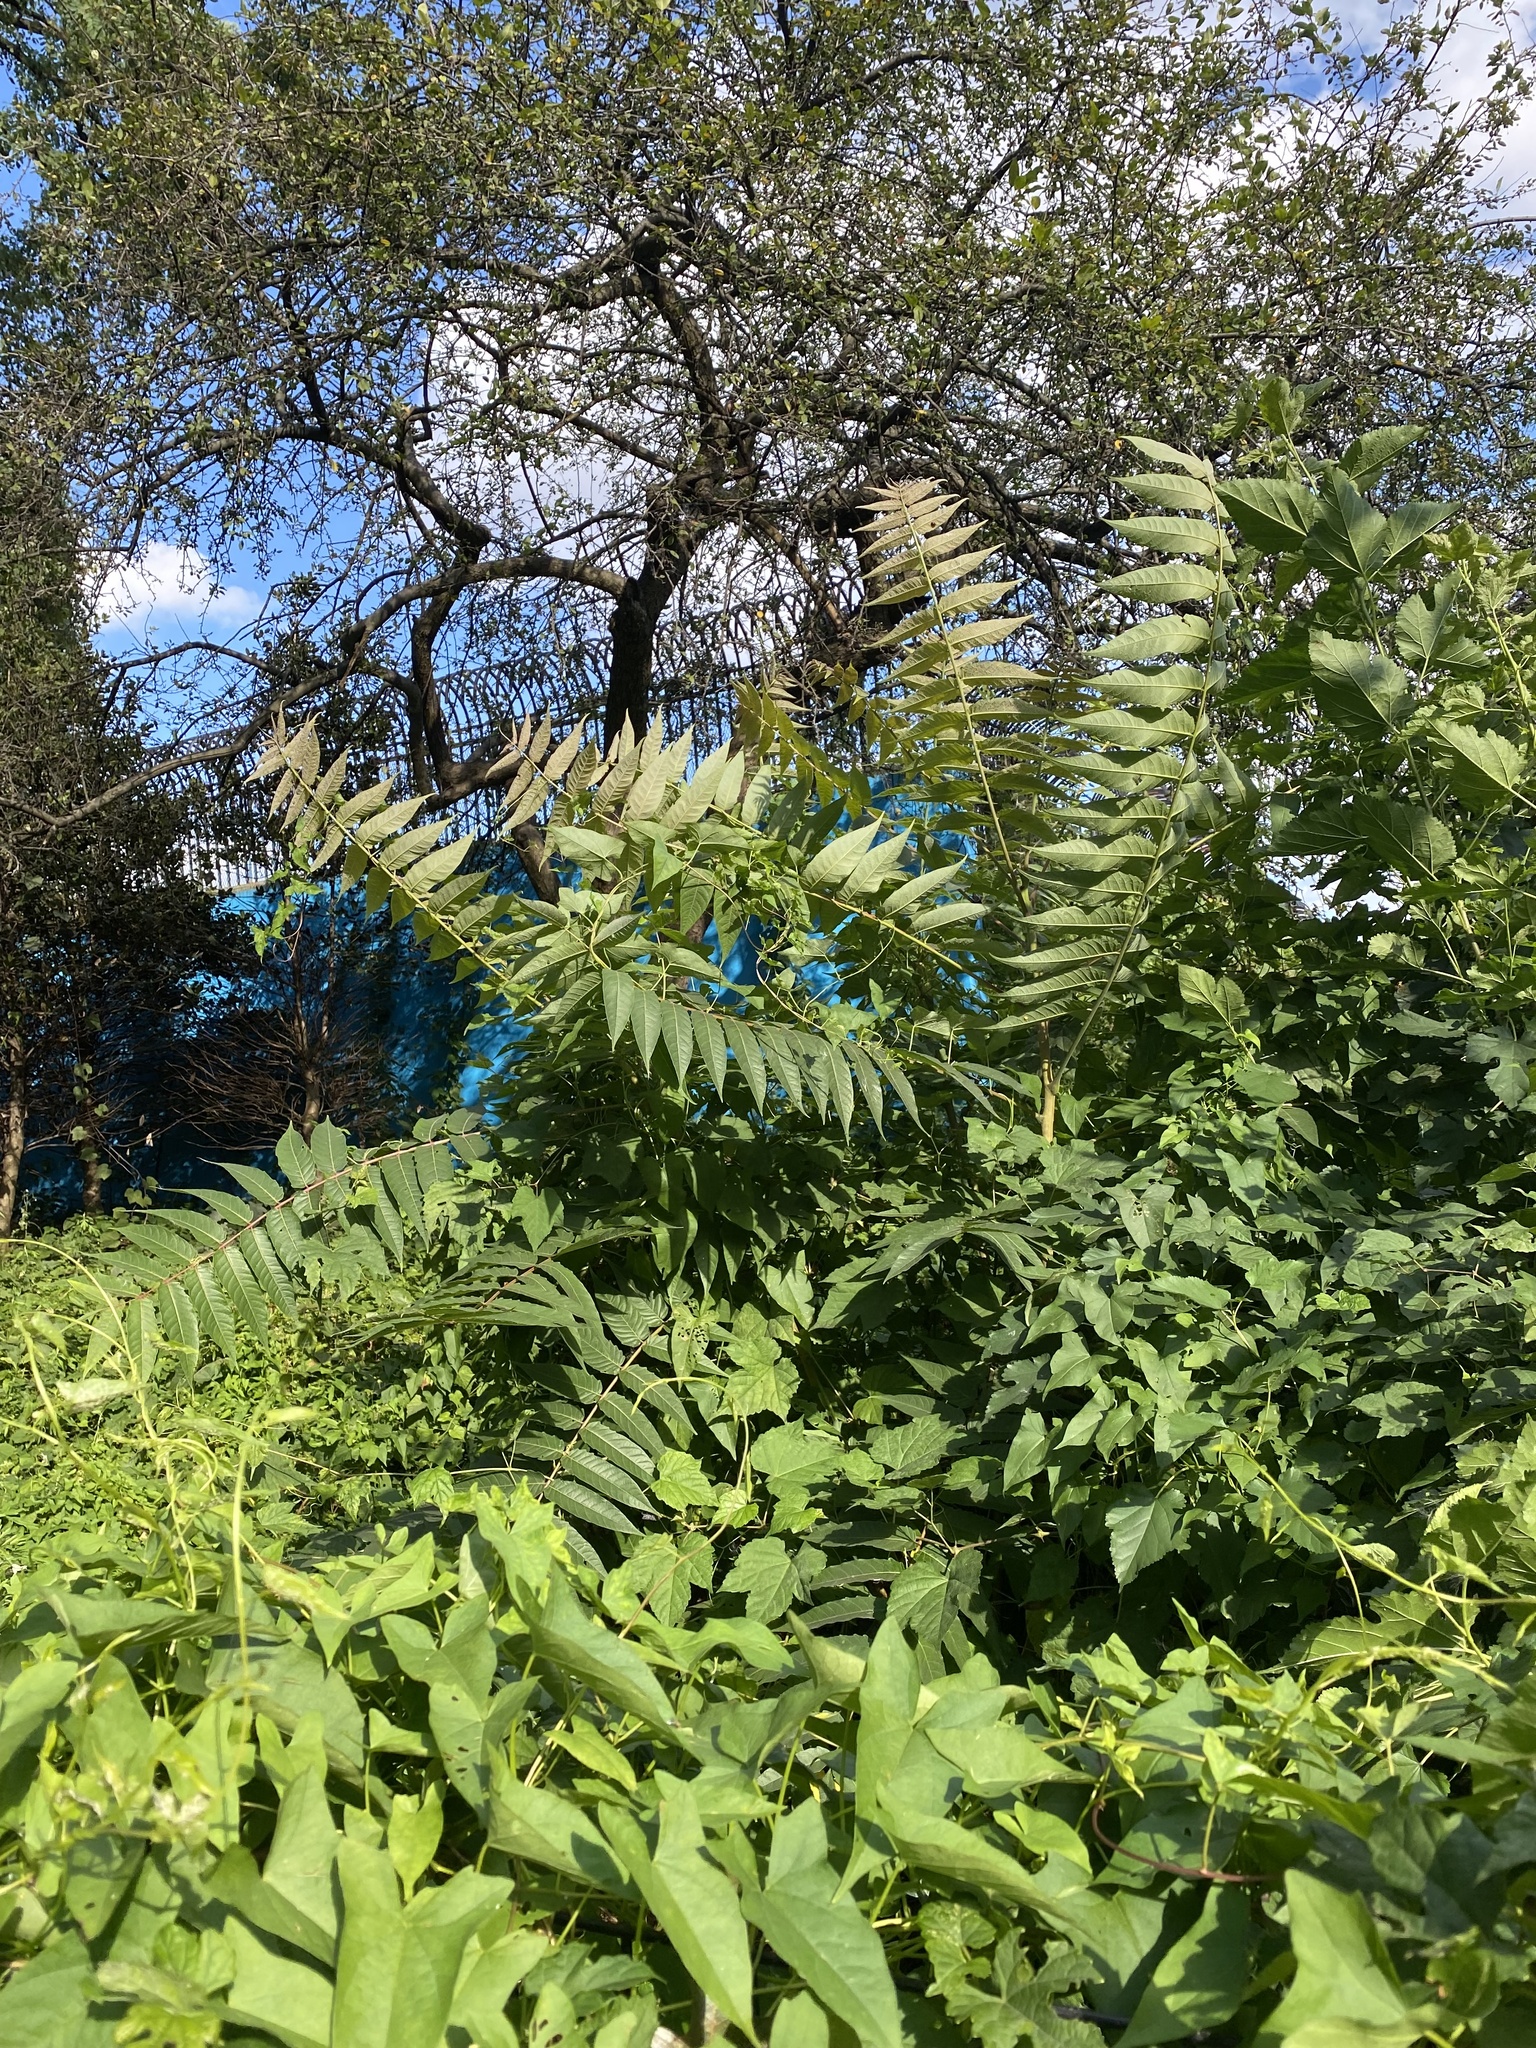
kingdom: Plantae
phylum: Tracheophyta
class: Magnoliopsida
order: Sapindales
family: Simaroubaceae
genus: Ailanthus
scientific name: Ailanthus altissima
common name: Tree-of-heaven
